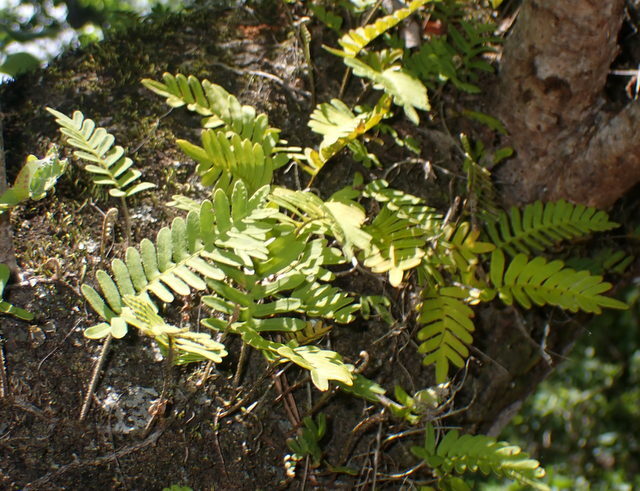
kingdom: Plantae
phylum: Tracheophyta
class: Polypodiopsida
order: Polypodiales
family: Polypodiaceae
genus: Pleopeltis
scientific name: Pleopeltis michauxiana
